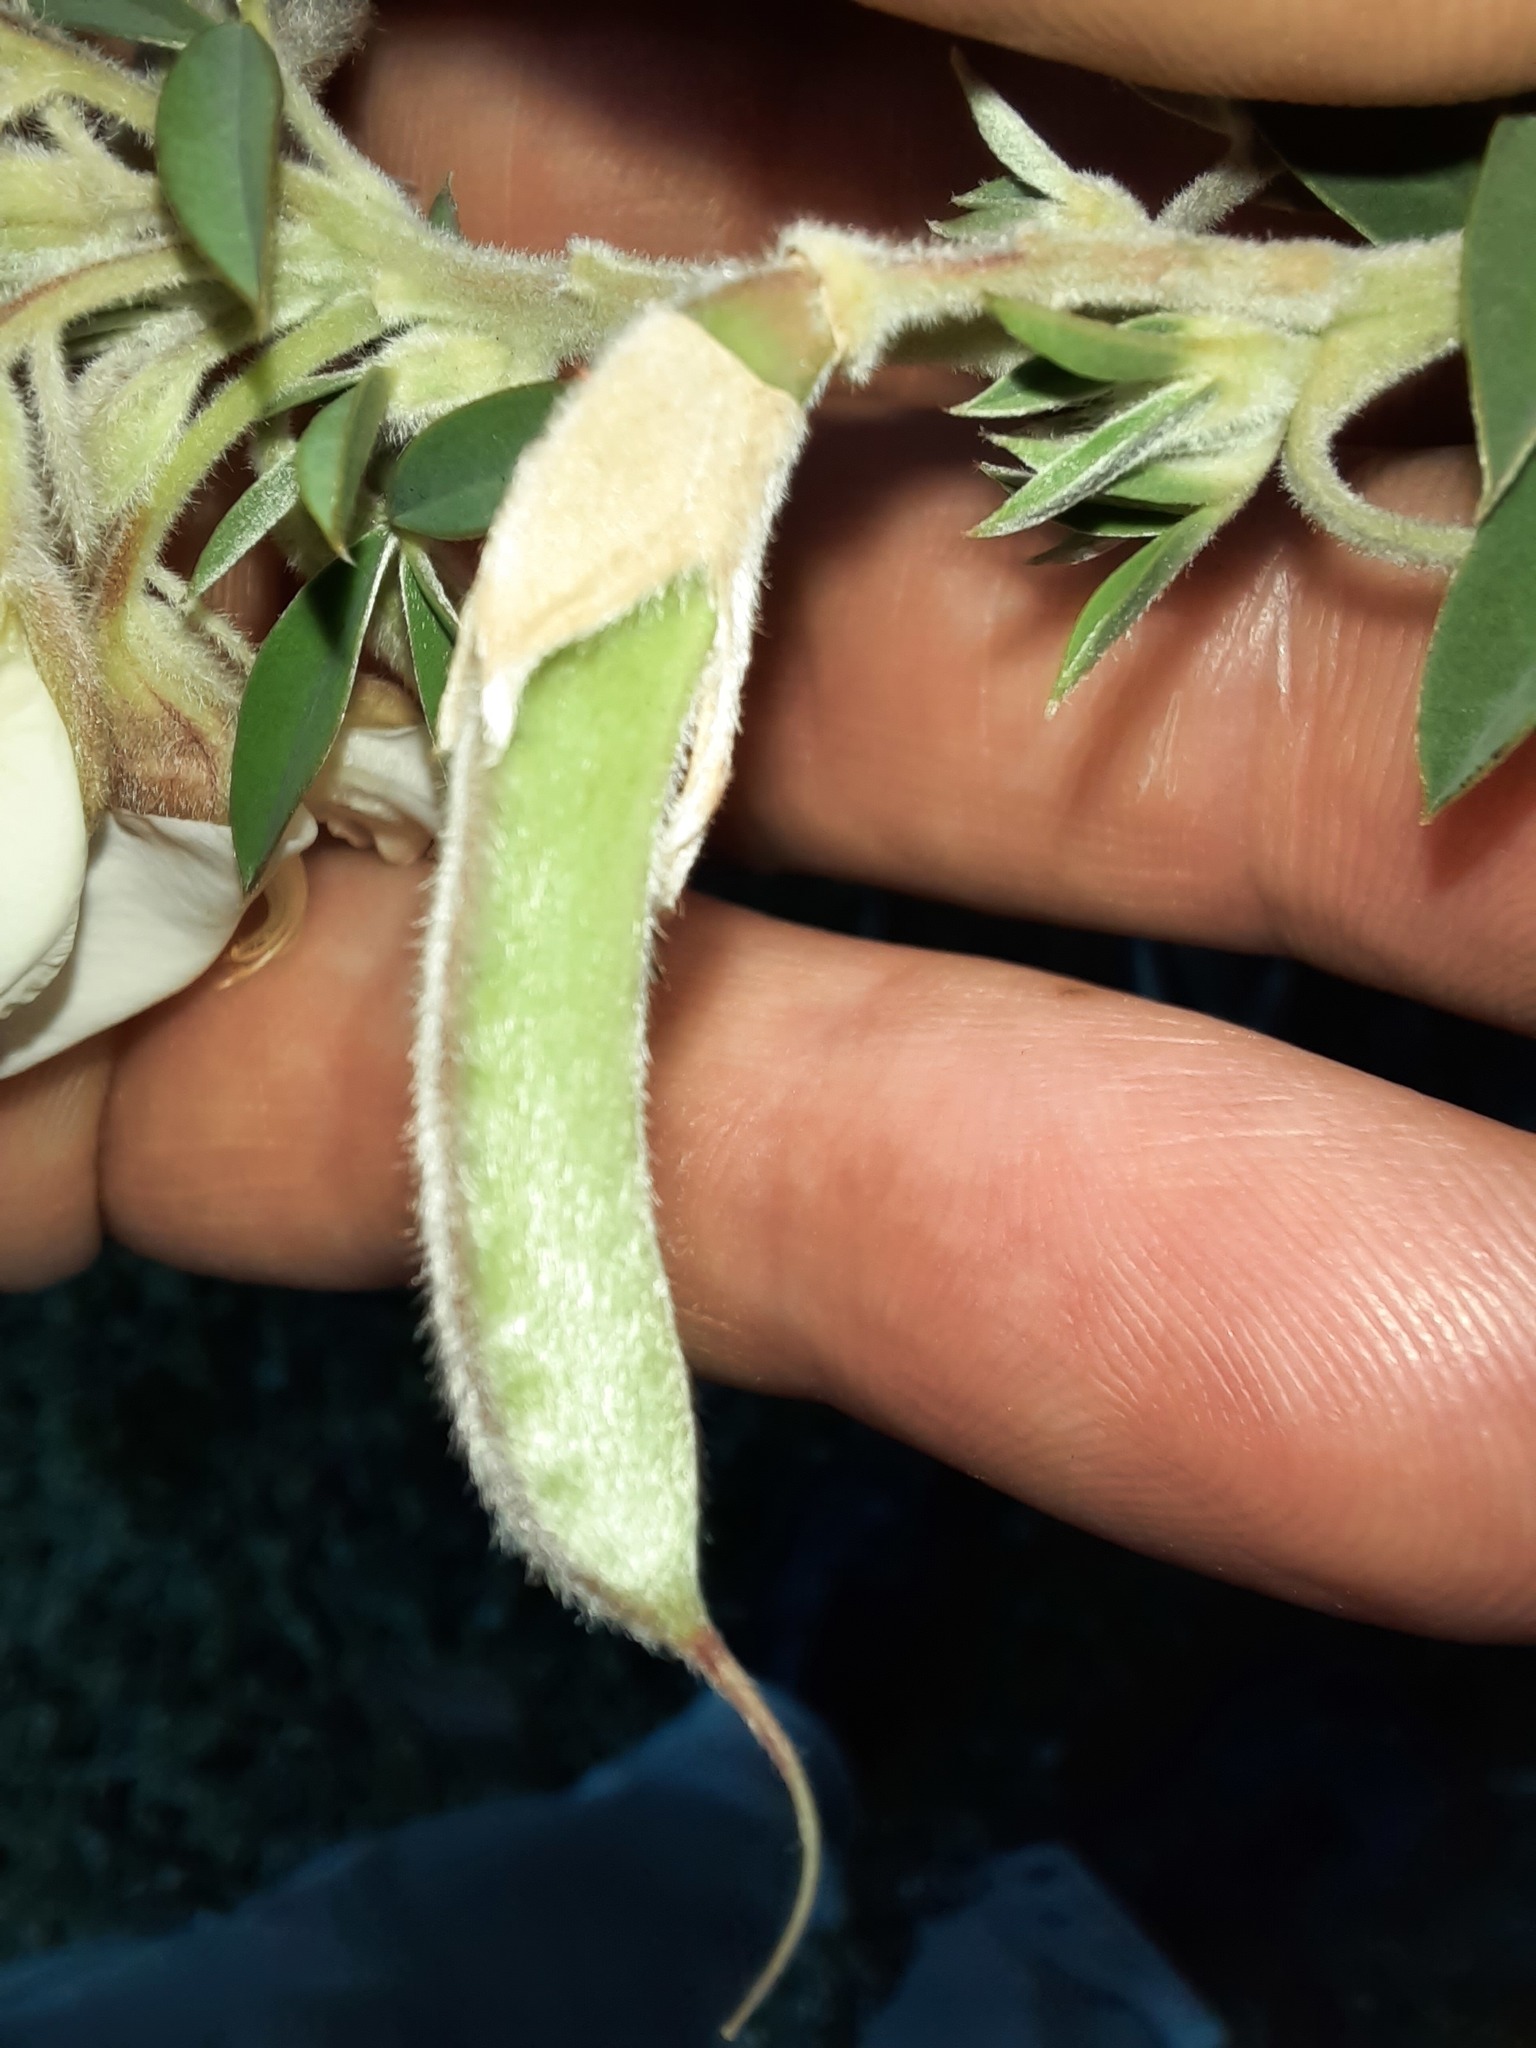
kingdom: Plantae
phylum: Tracheophyta
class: Magnoliopsida
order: Fabales
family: Fabaceae
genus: Chamaecytisus
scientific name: Chamaecytisus prolifer
